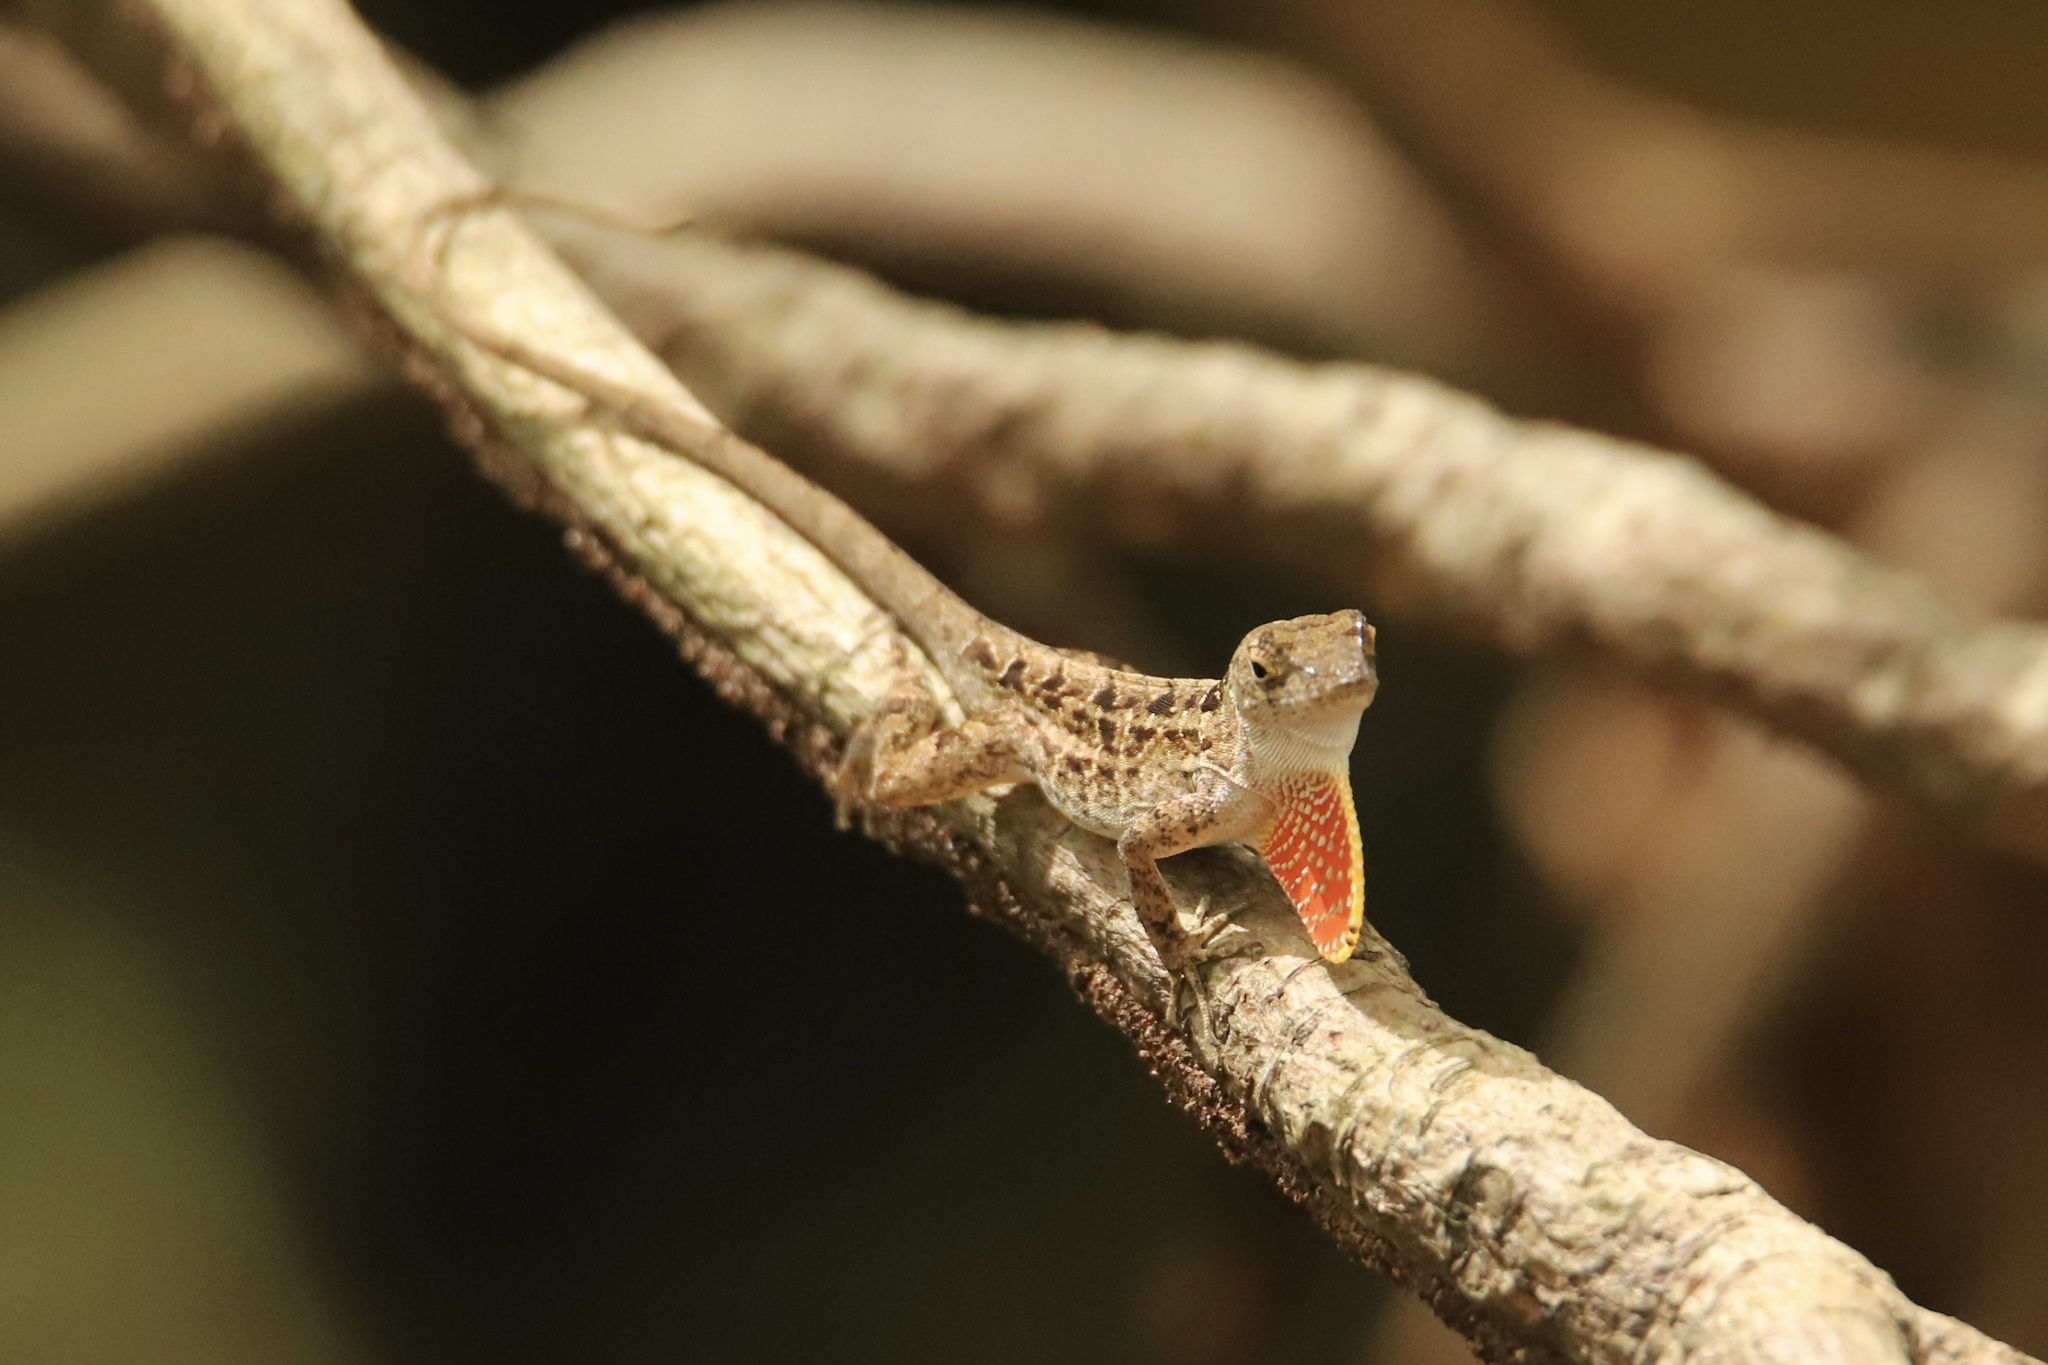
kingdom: Animalia
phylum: Chordata
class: Squamata
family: Dactyloidae
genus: Anolis
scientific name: Anolis sagrei
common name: Brown anole
